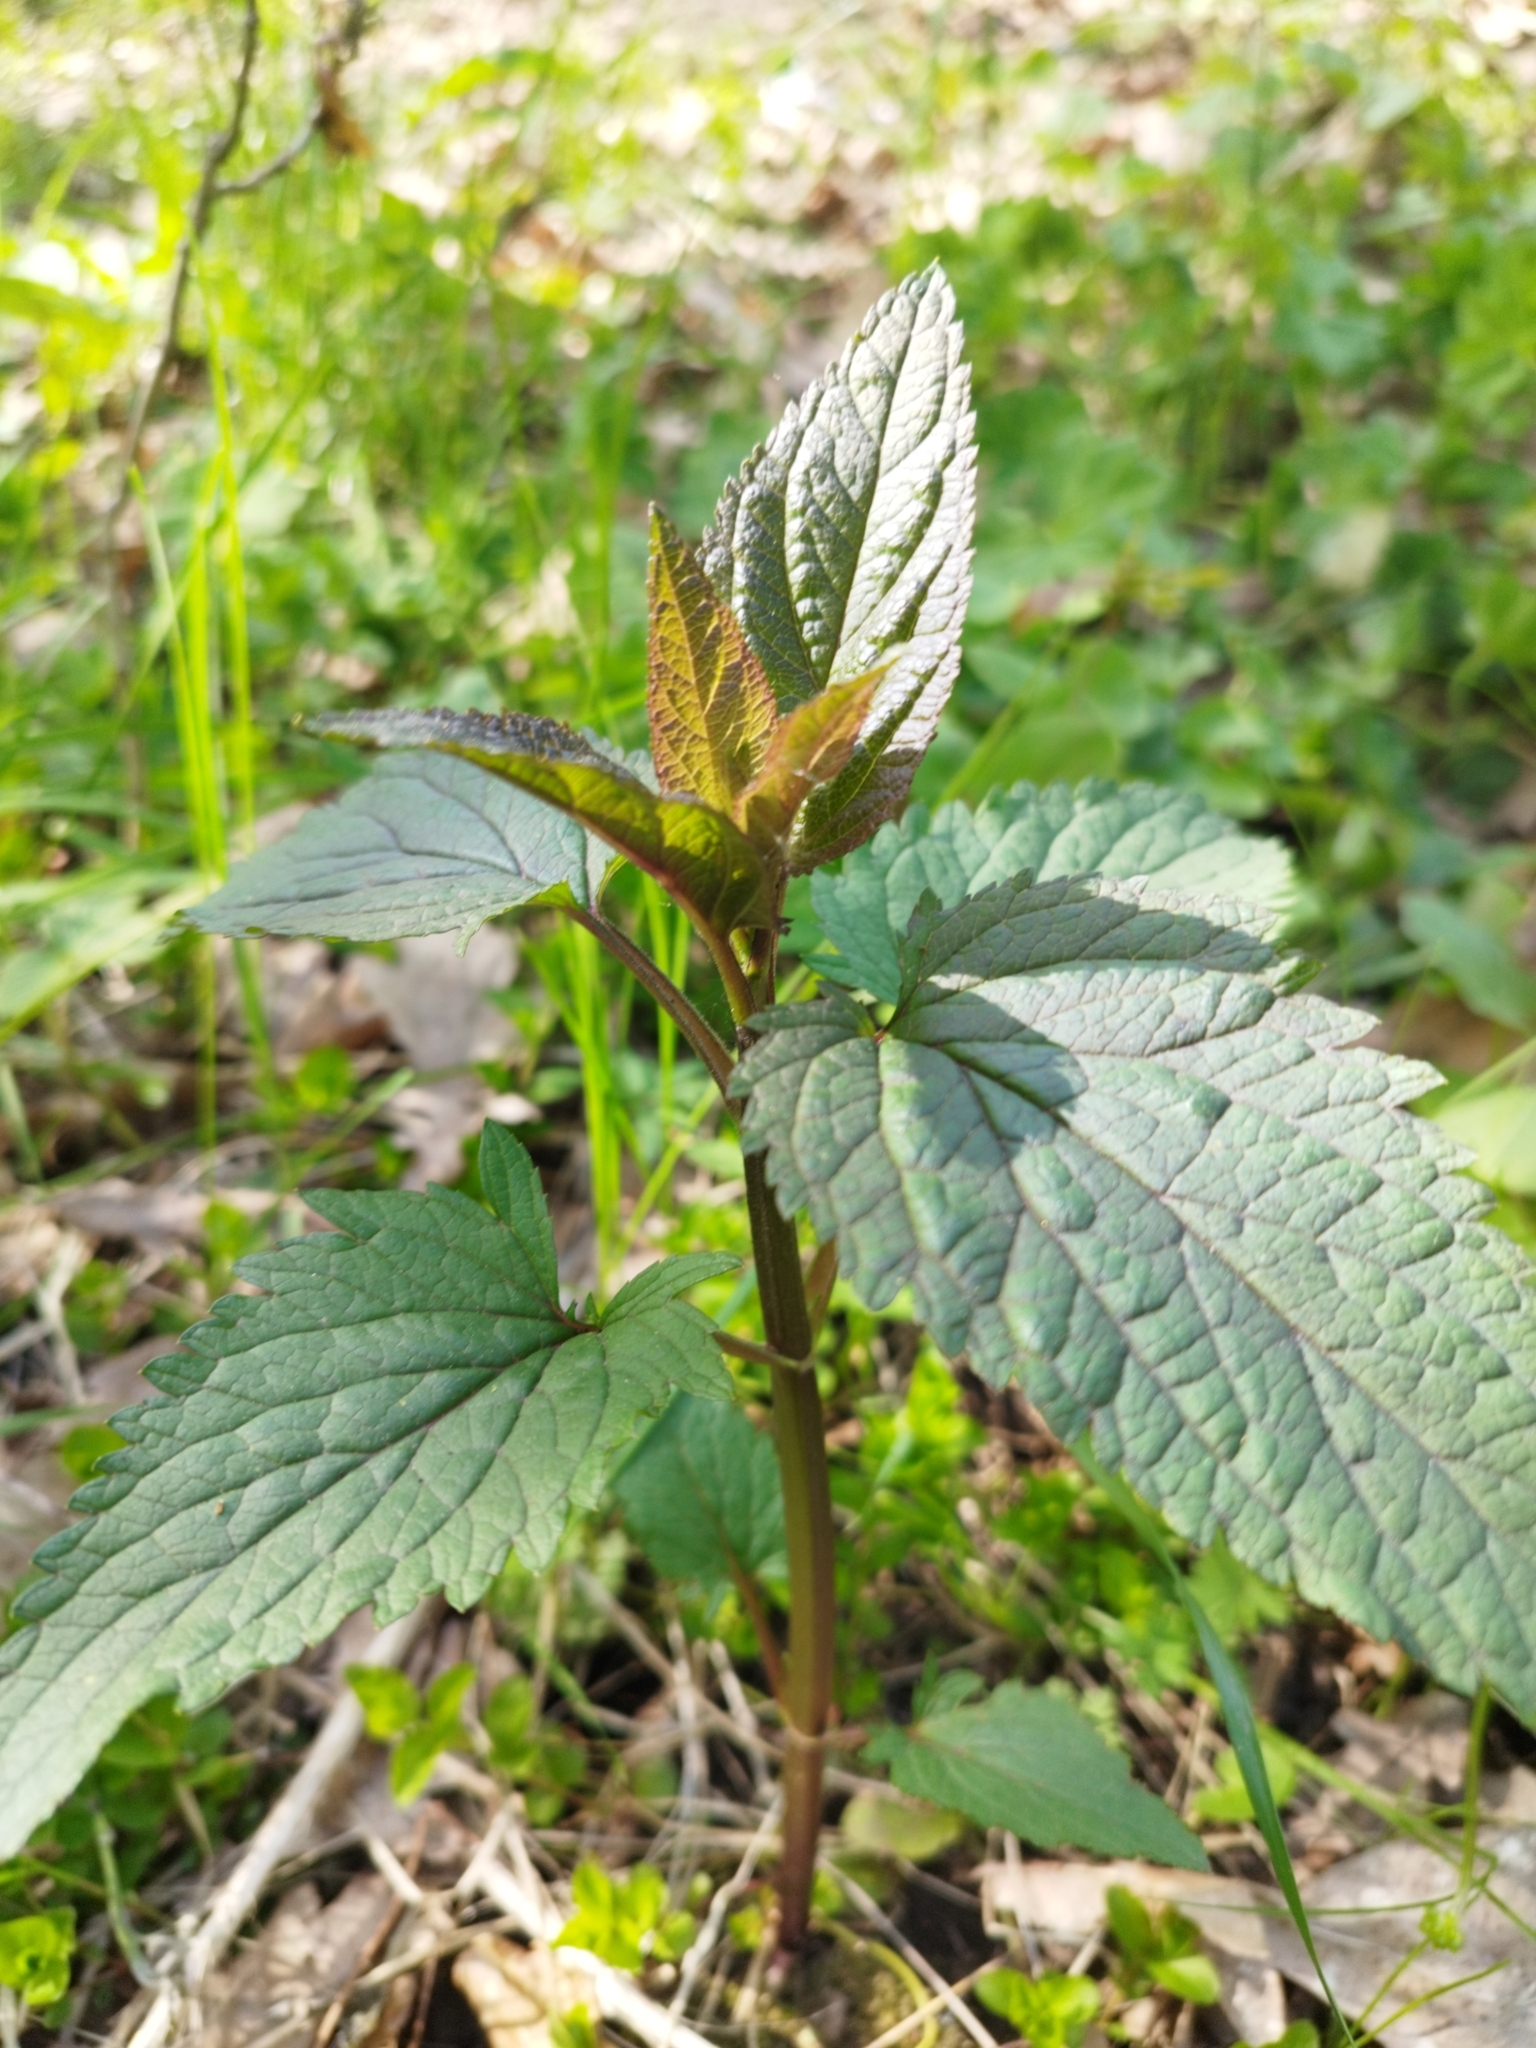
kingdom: Plantae
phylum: Tracheophyta
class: Magnoliopsida
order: Lamiales
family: Scrophulariaceae
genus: Scrophularia
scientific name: Scrophularia nodosa
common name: Common figwort
